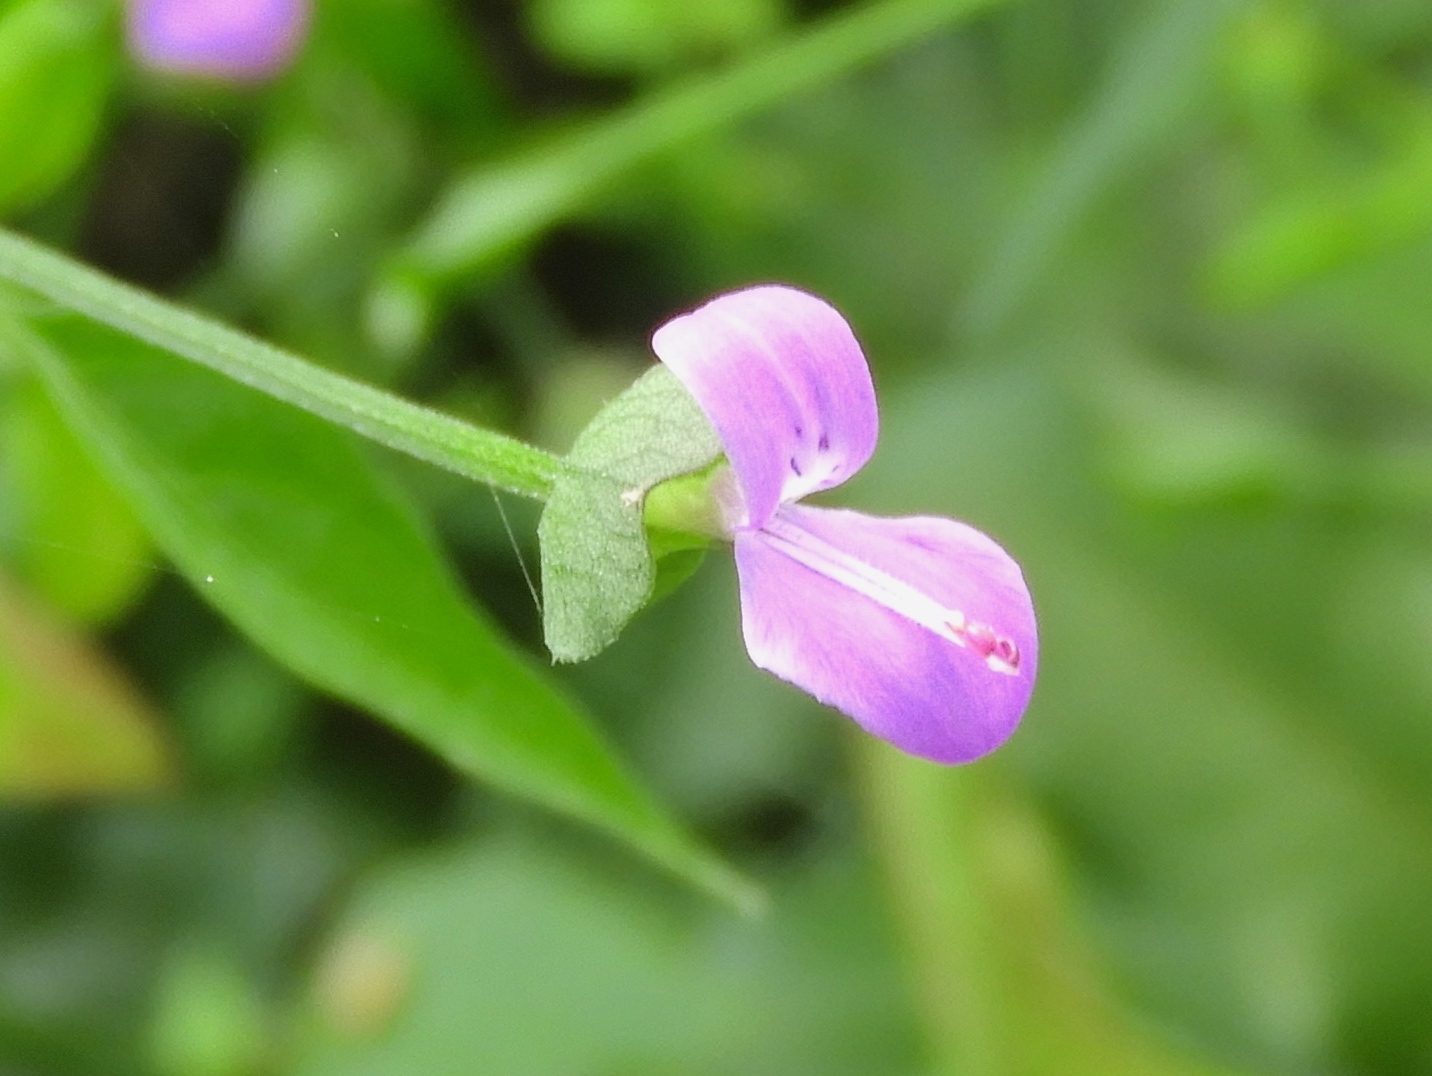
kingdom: Plantae
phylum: Tracheophyta
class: Magnoliopsida
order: Lamiales
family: Acanthaceae
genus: Dicliptera
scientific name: Dicliptera resupinata
